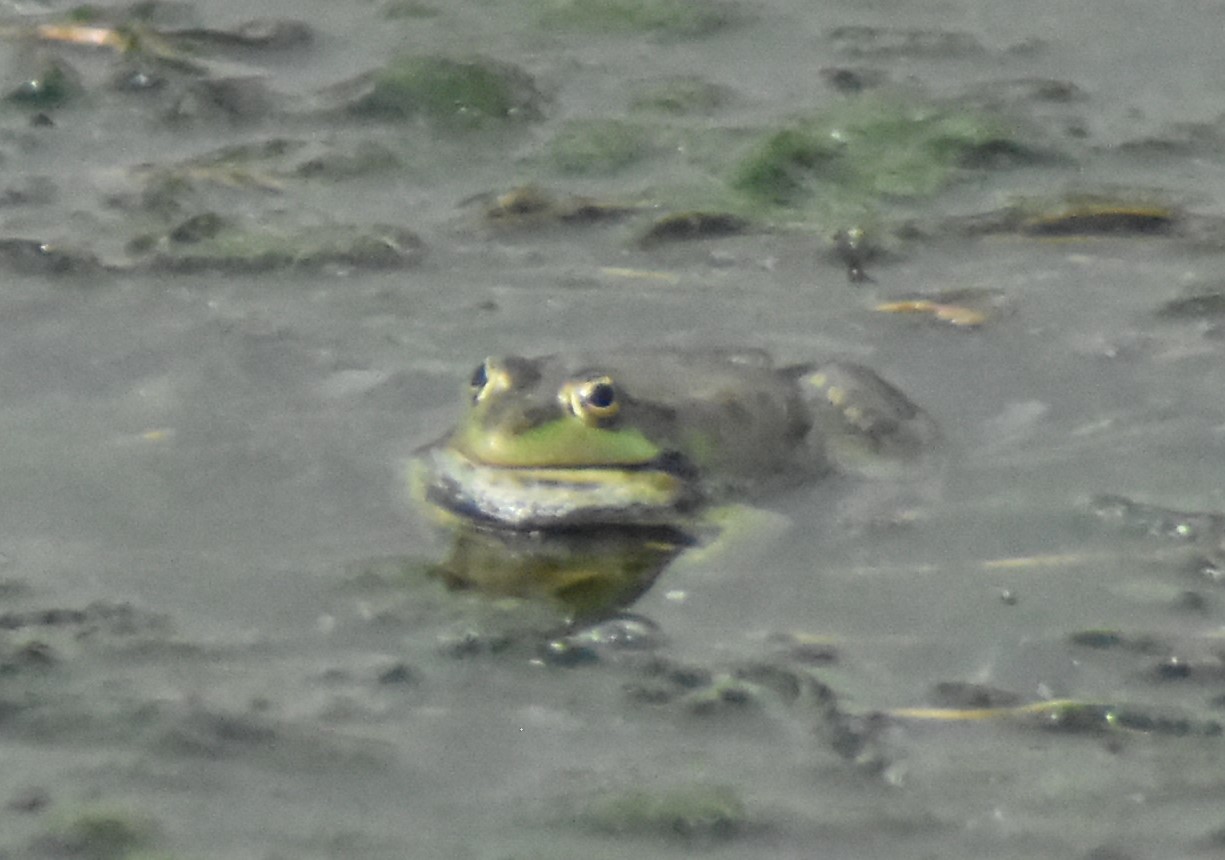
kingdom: Animalia
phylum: Chordata
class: Amphibia
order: Anura
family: Ranidae
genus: Pelophylax
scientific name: Pelophylax ridibundus
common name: Marsh frog
